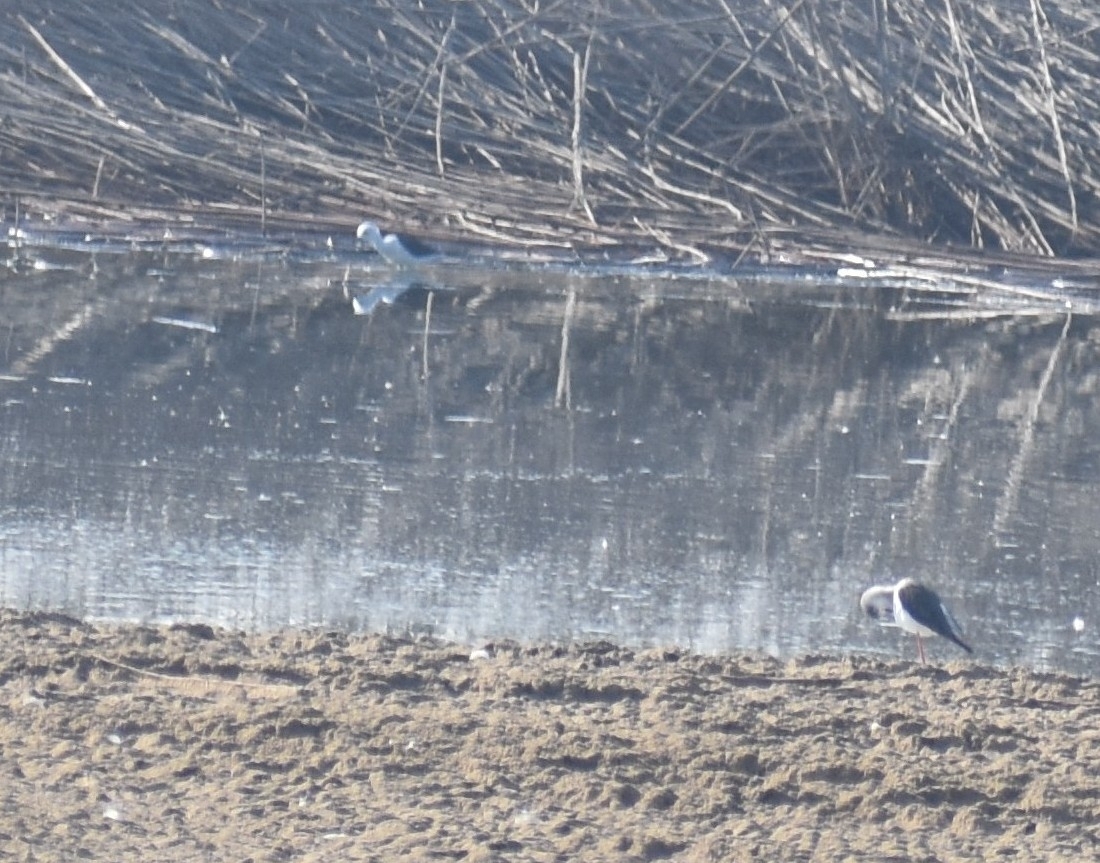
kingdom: Animalia
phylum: Chordata
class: Aves
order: Charadriiformes
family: Recurvirostridae
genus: Himantopus
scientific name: Himantopus himantopus
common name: Black-winged stilt
